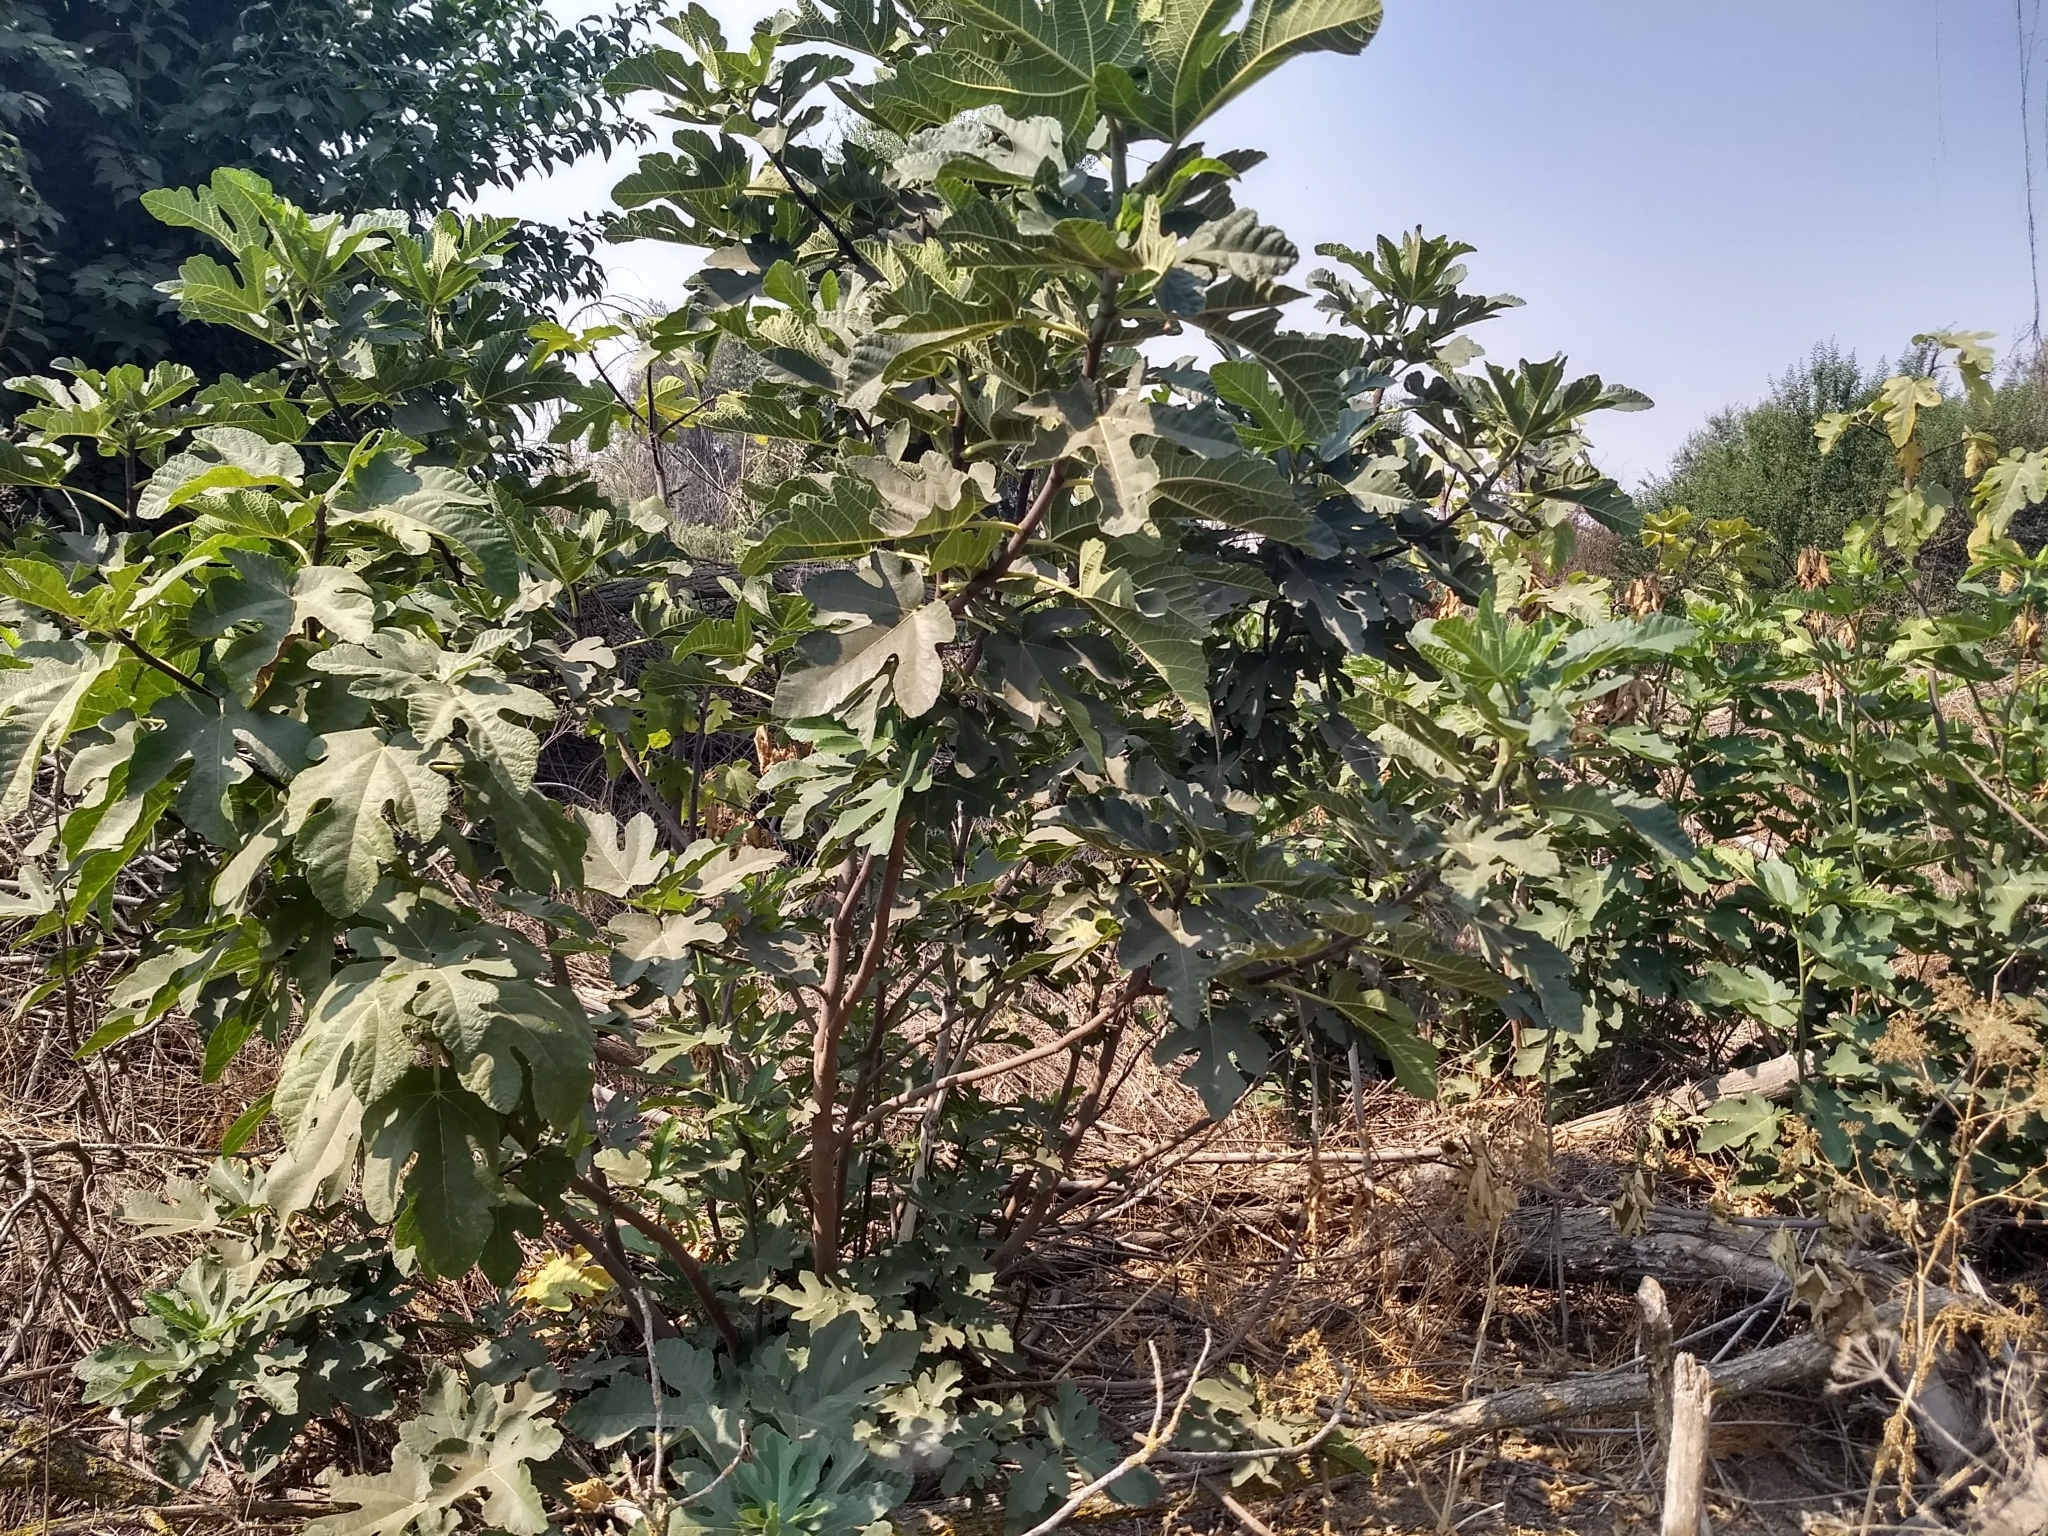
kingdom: Plantae
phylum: Tracheophyta
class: Magnoliopsida
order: Rosales
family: Moraceae
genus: Ficus
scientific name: Ficus carica
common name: Fig
